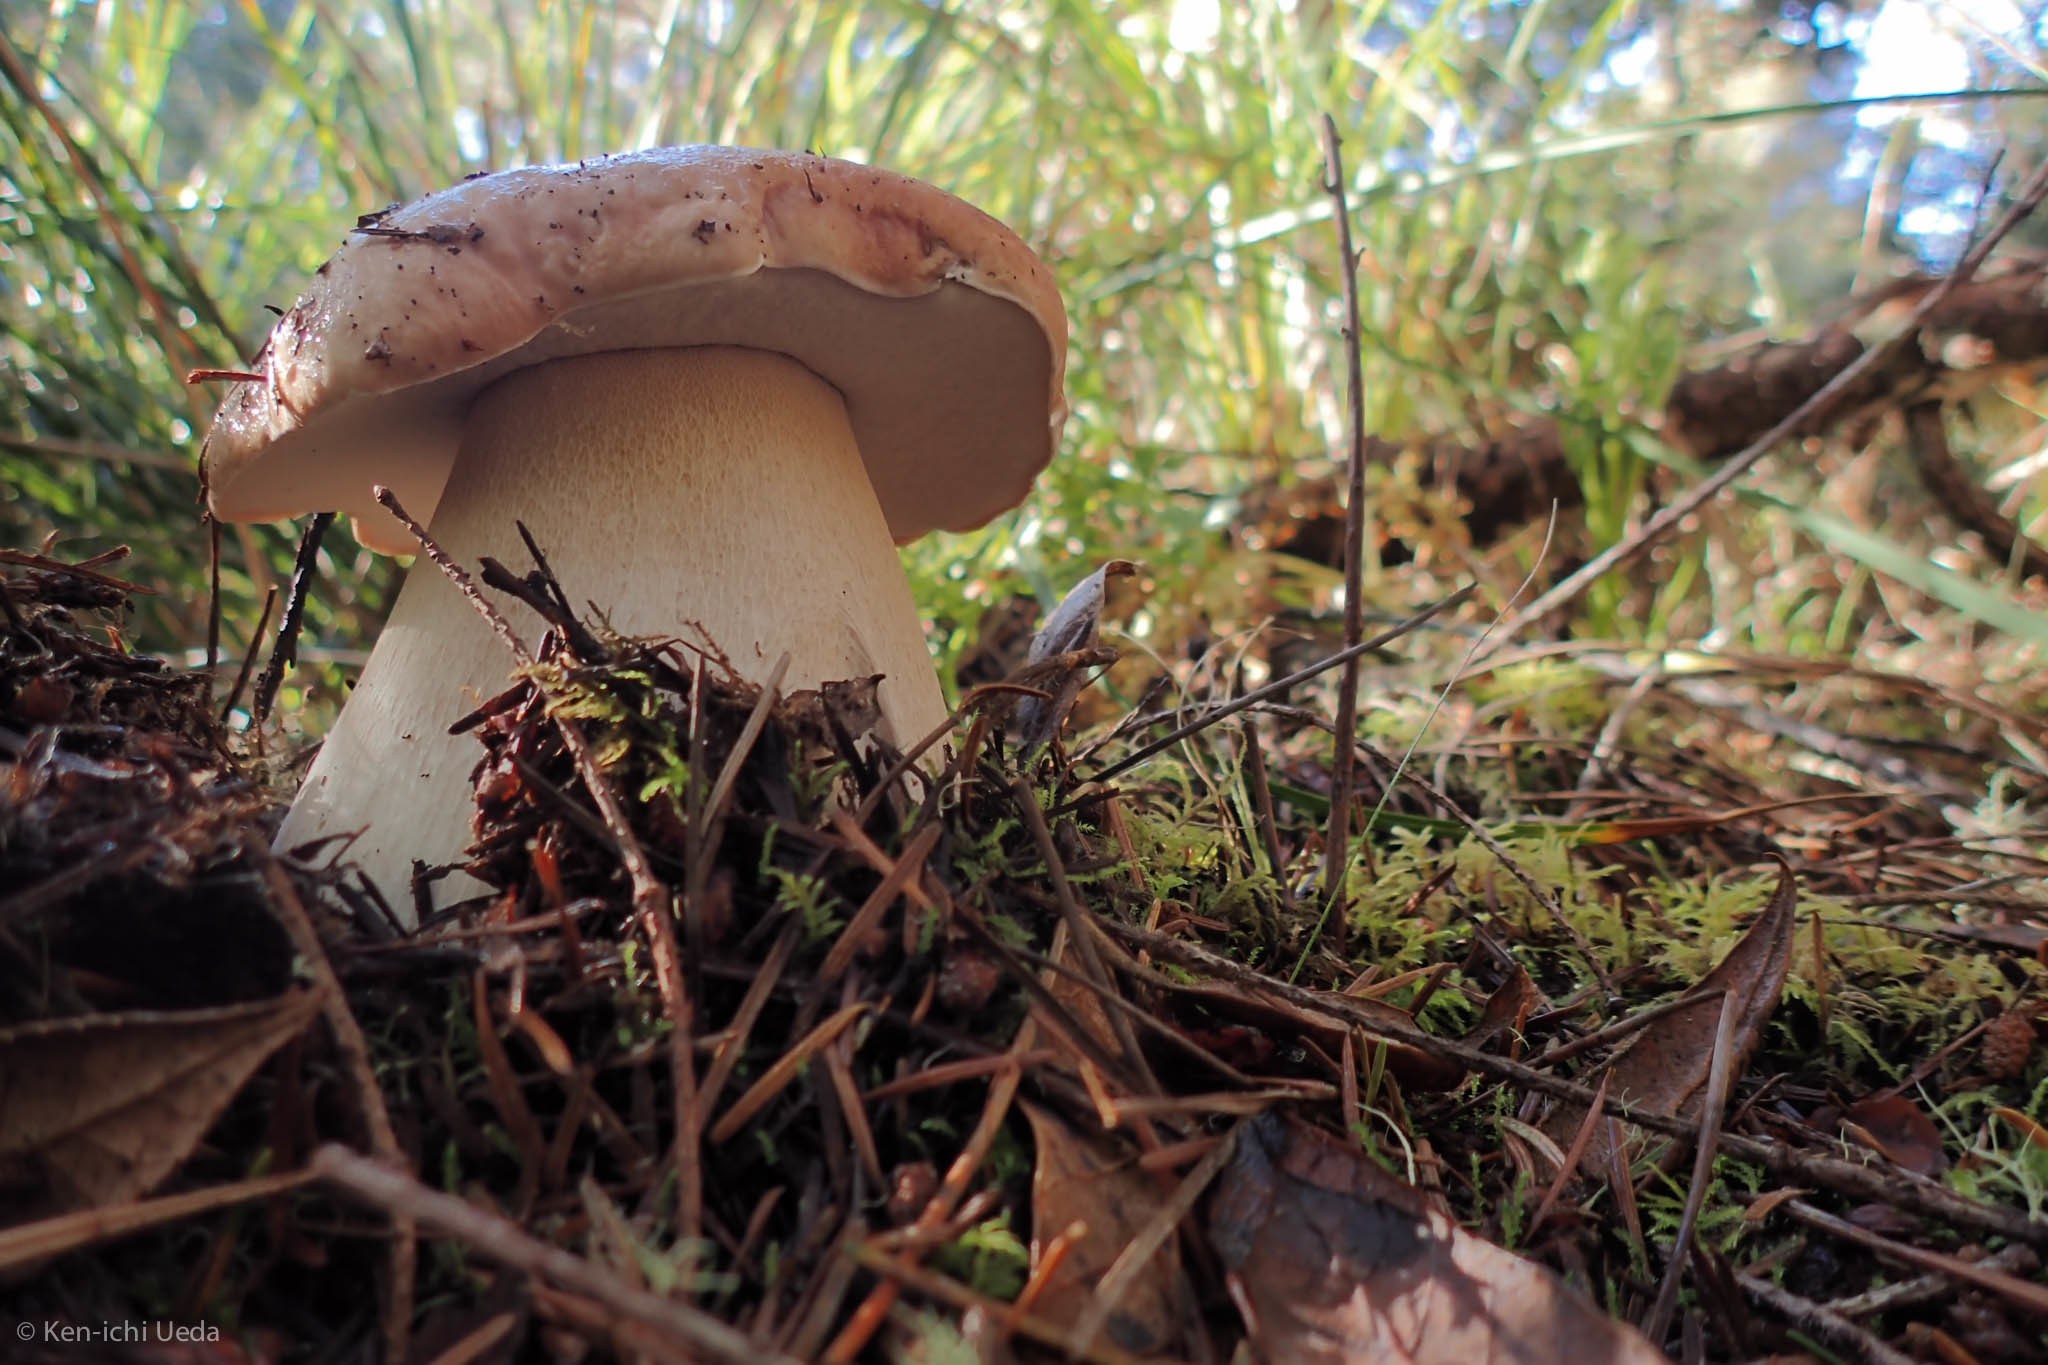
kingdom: Fungi
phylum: Basidiomycota
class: Agaricomycetes
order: Boletales
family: Boletaceae
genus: Boletus
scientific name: Boletus edulis
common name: Cep
